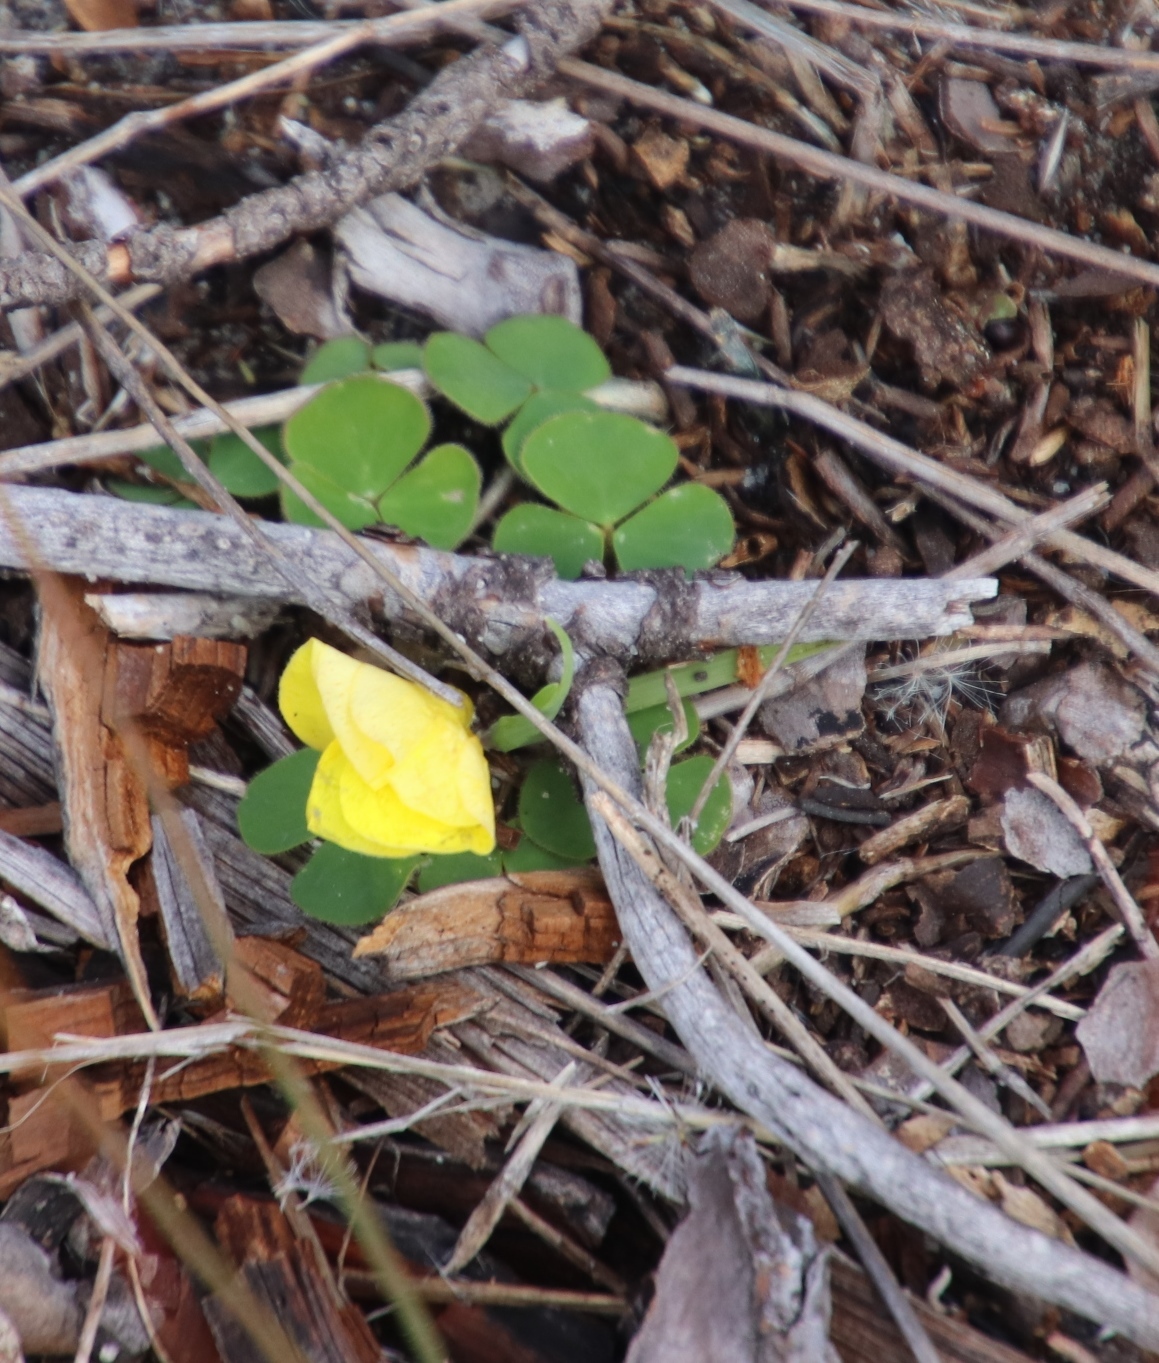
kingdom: Plantae
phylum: Tracheophyta
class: Magnoliopsida
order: Oxalidales
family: Oxalidaceae
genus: Oxalis
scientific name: Oxalis luteola
